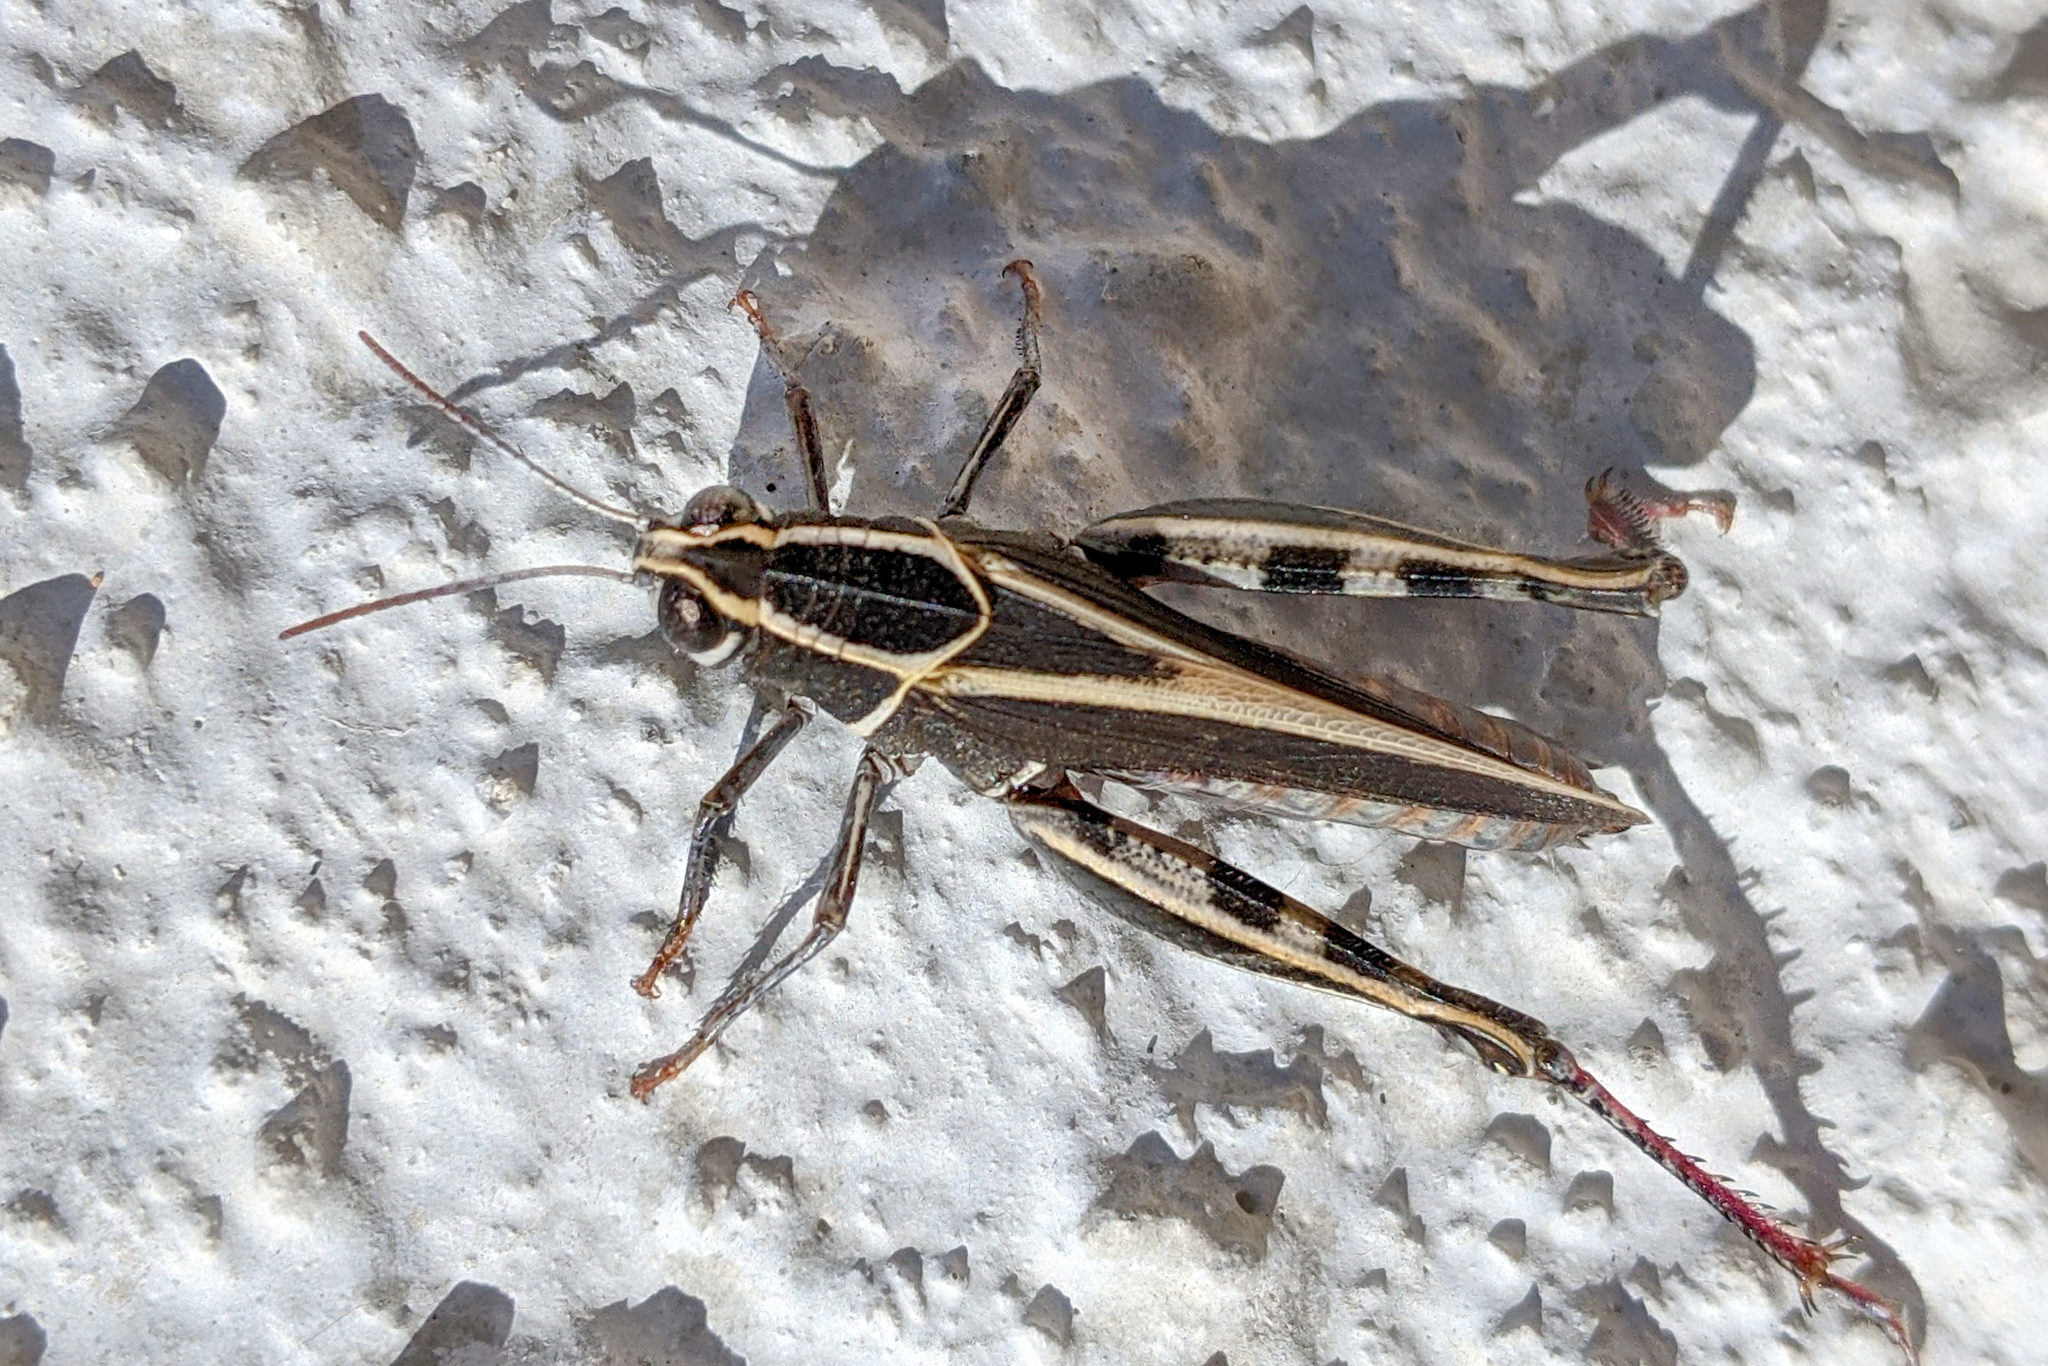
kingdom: Animalia
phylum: Arthropoda
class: Insecta
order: Orthoptera
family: Acrididae
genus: Calliptamus
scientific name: Calliptamus barbarus
